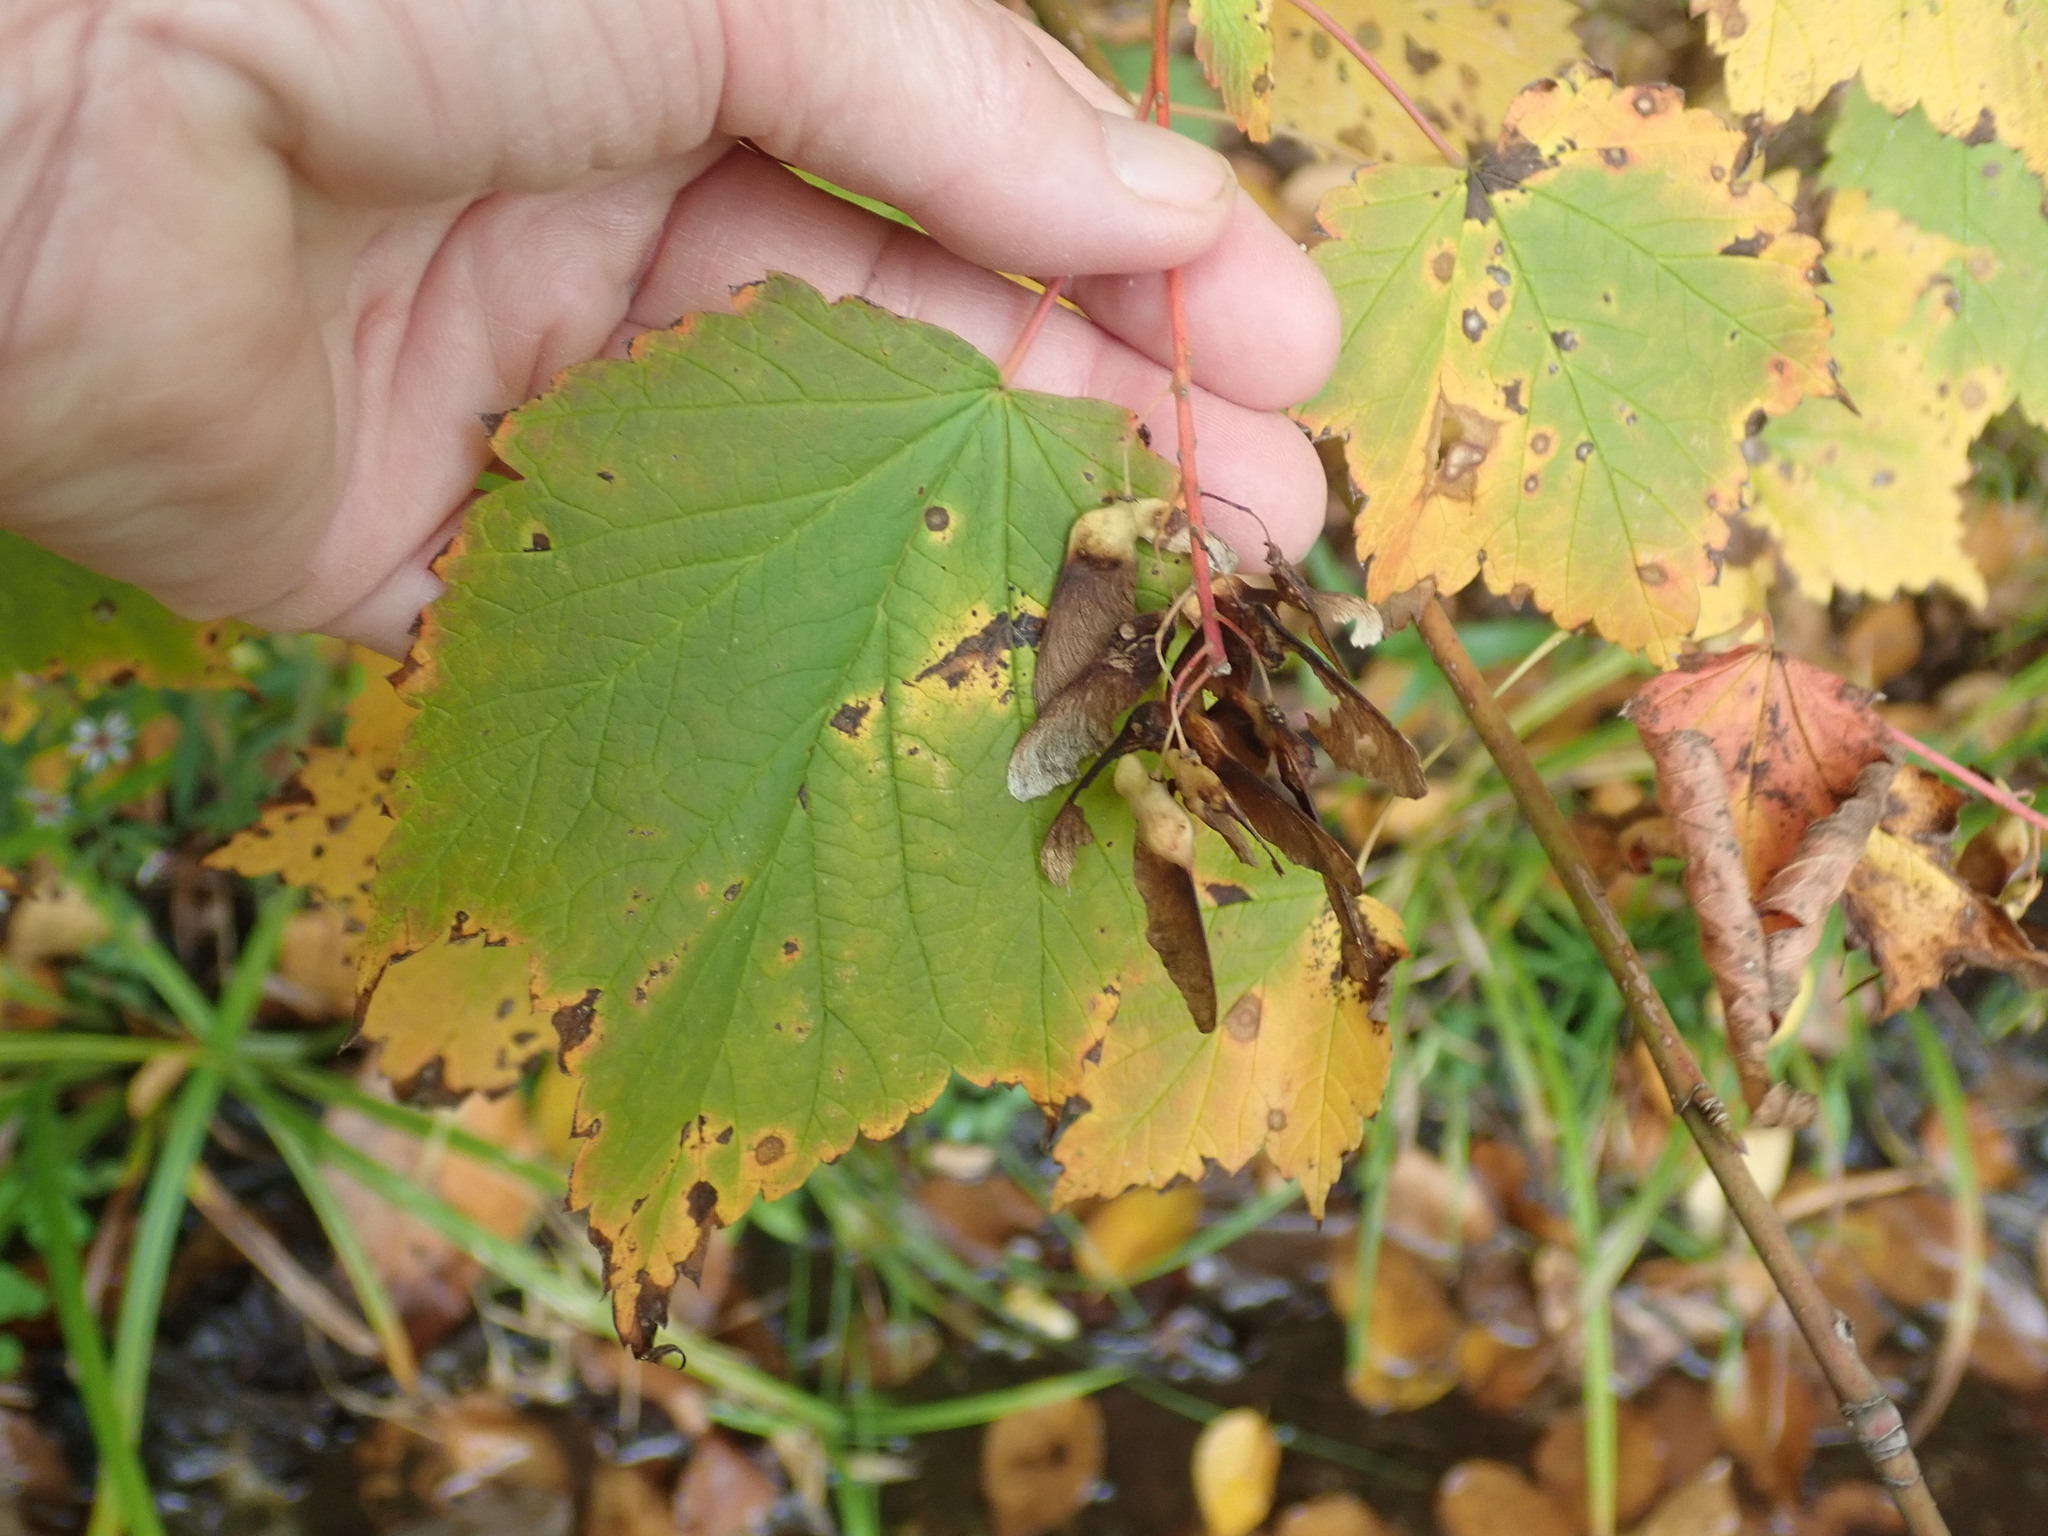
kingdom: Plantae
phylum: Tracheophyta
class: Magnoliopsida
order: Sapindales
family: Sapindaceae
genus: Acer
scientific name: Acer spicatum
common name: Mountain maple
